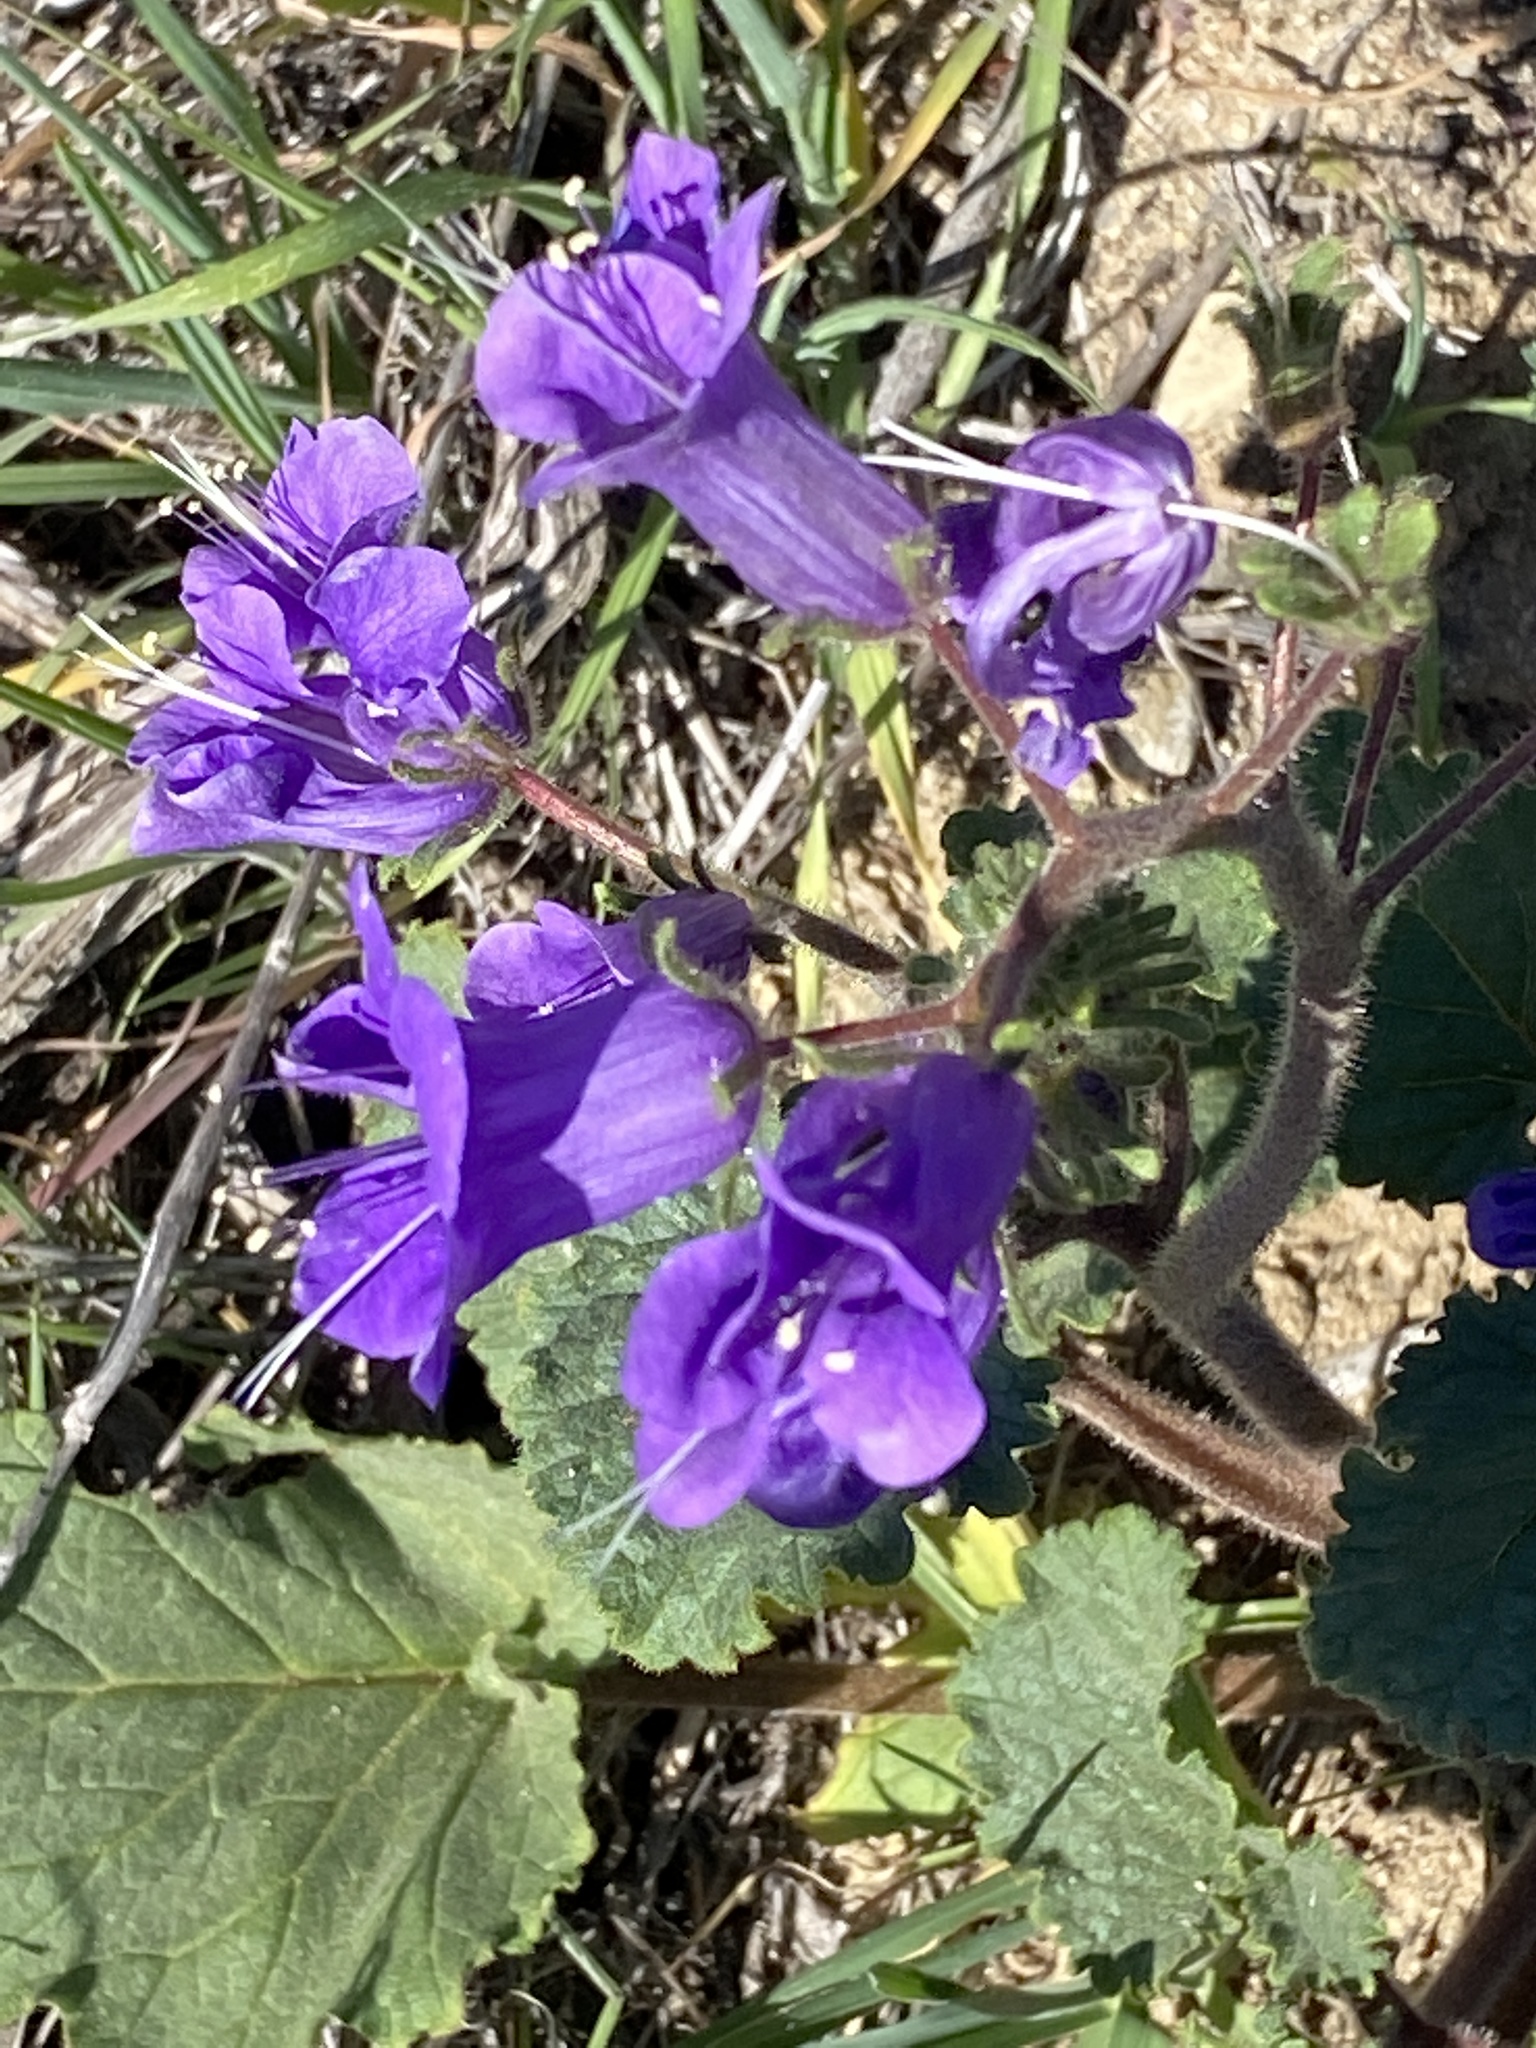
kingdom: Plantae
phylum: Tracheophyta
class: Magnoliopsida
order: Boraginales
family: Hydrophyllaceae
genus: Phacelia
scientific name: Phacelia minor
